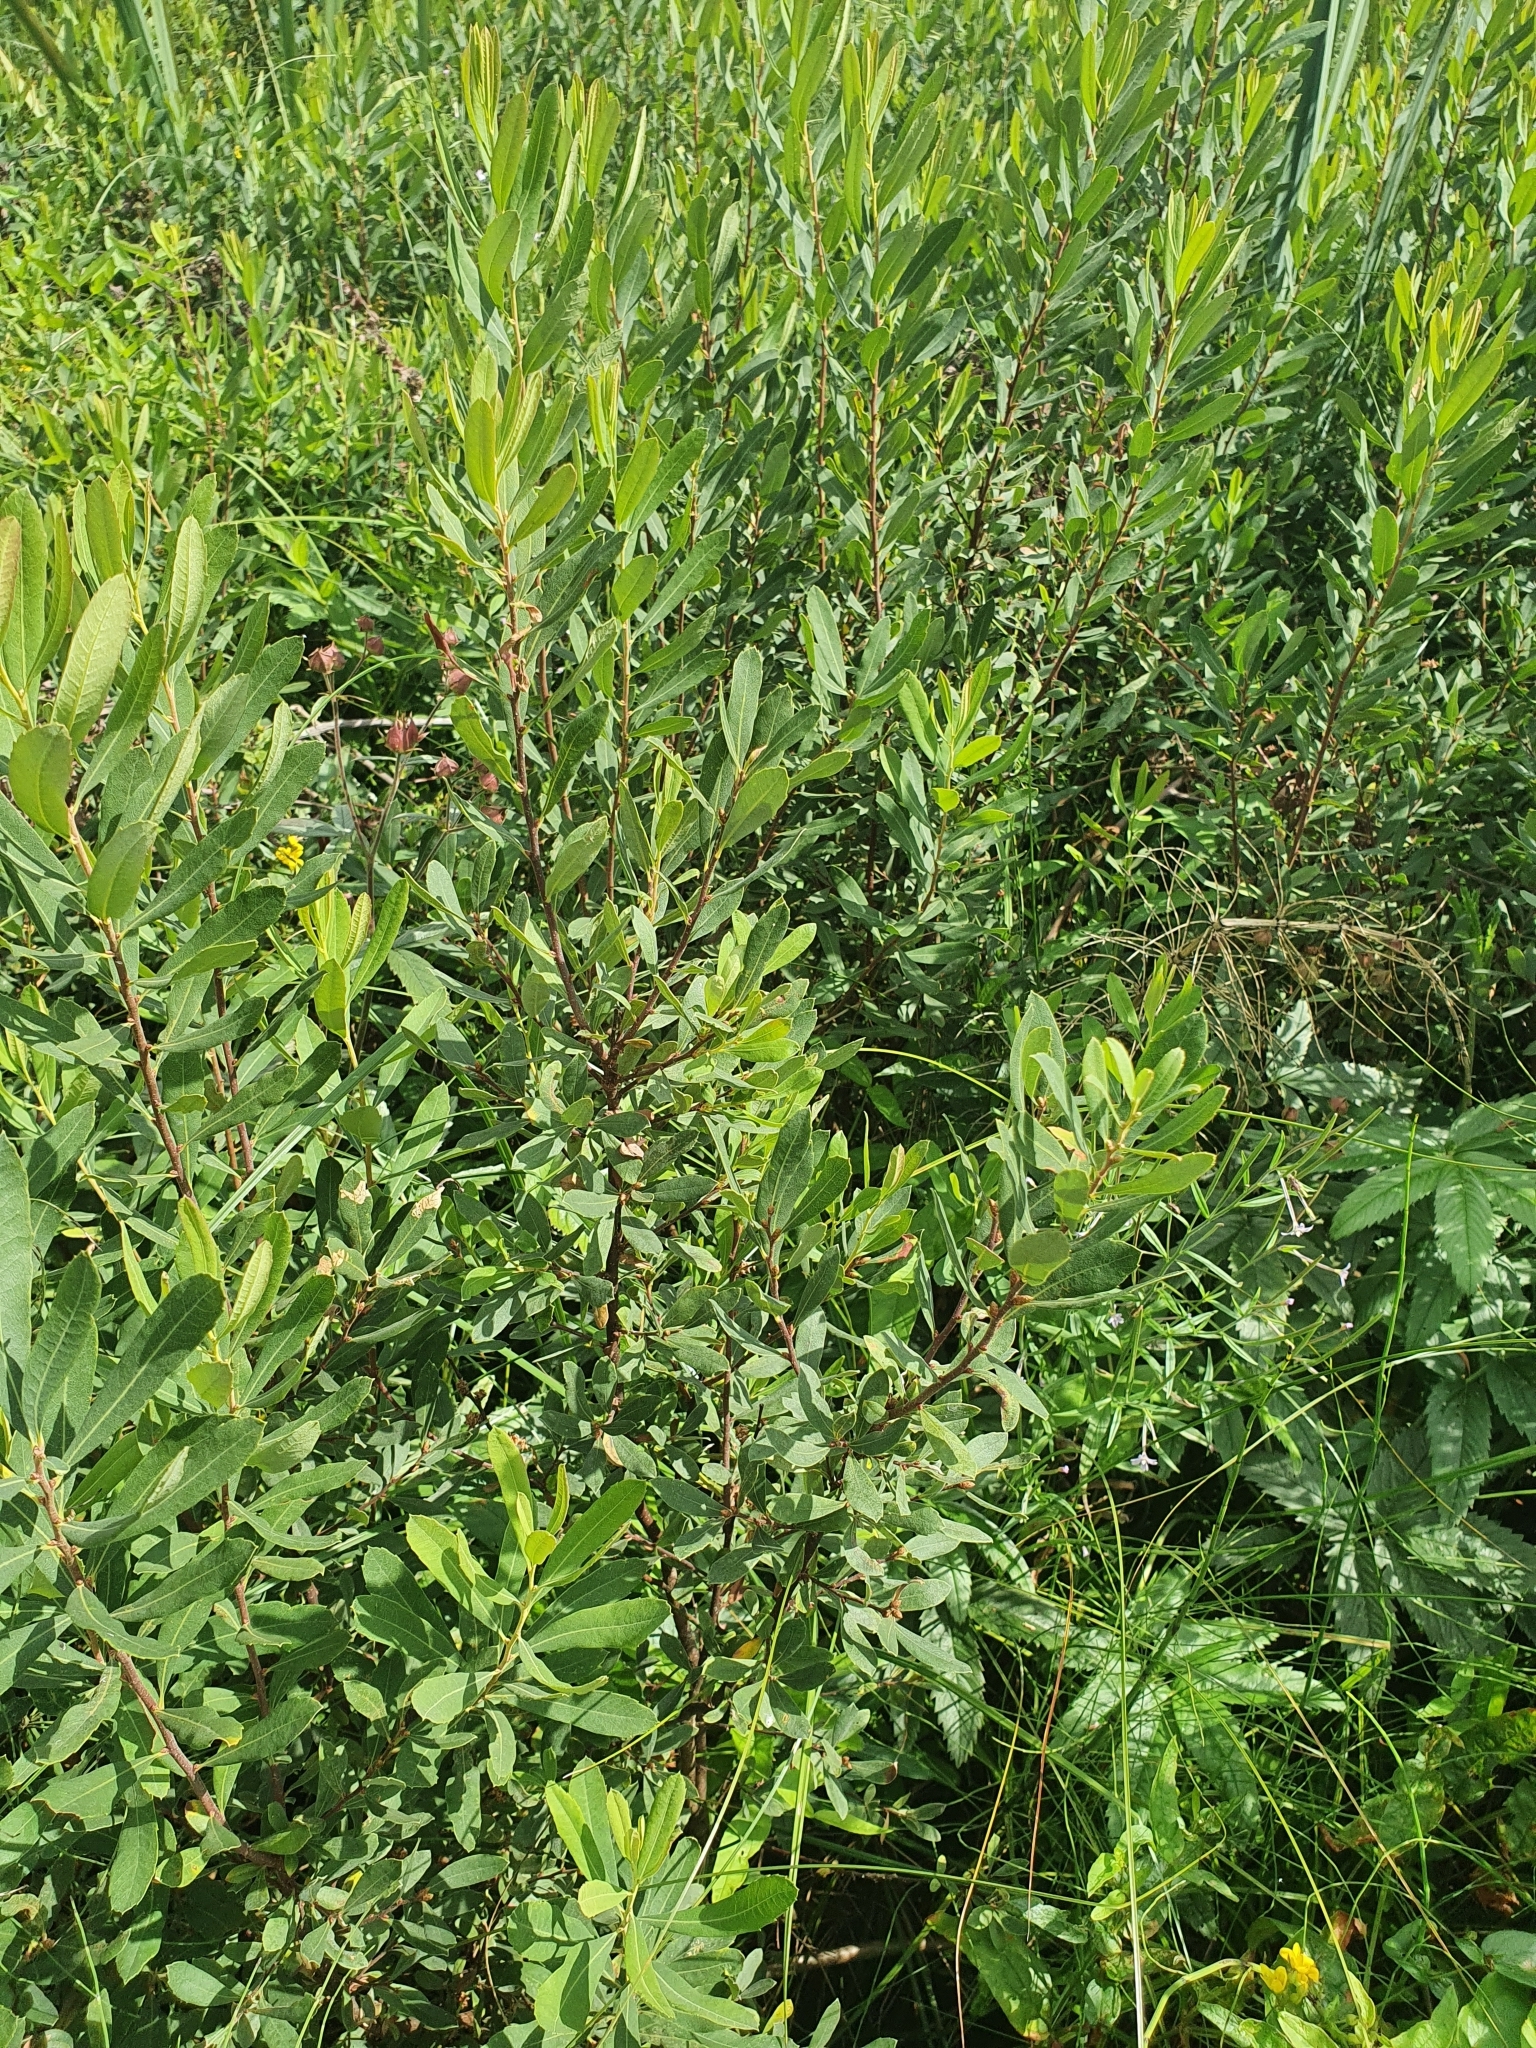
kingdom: Plantae
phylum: Tracheophyta
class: Magnoliopsida
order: Fagales
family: Myricaceae
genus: Myrica
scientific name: Myrica gale
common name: Sweet gale
